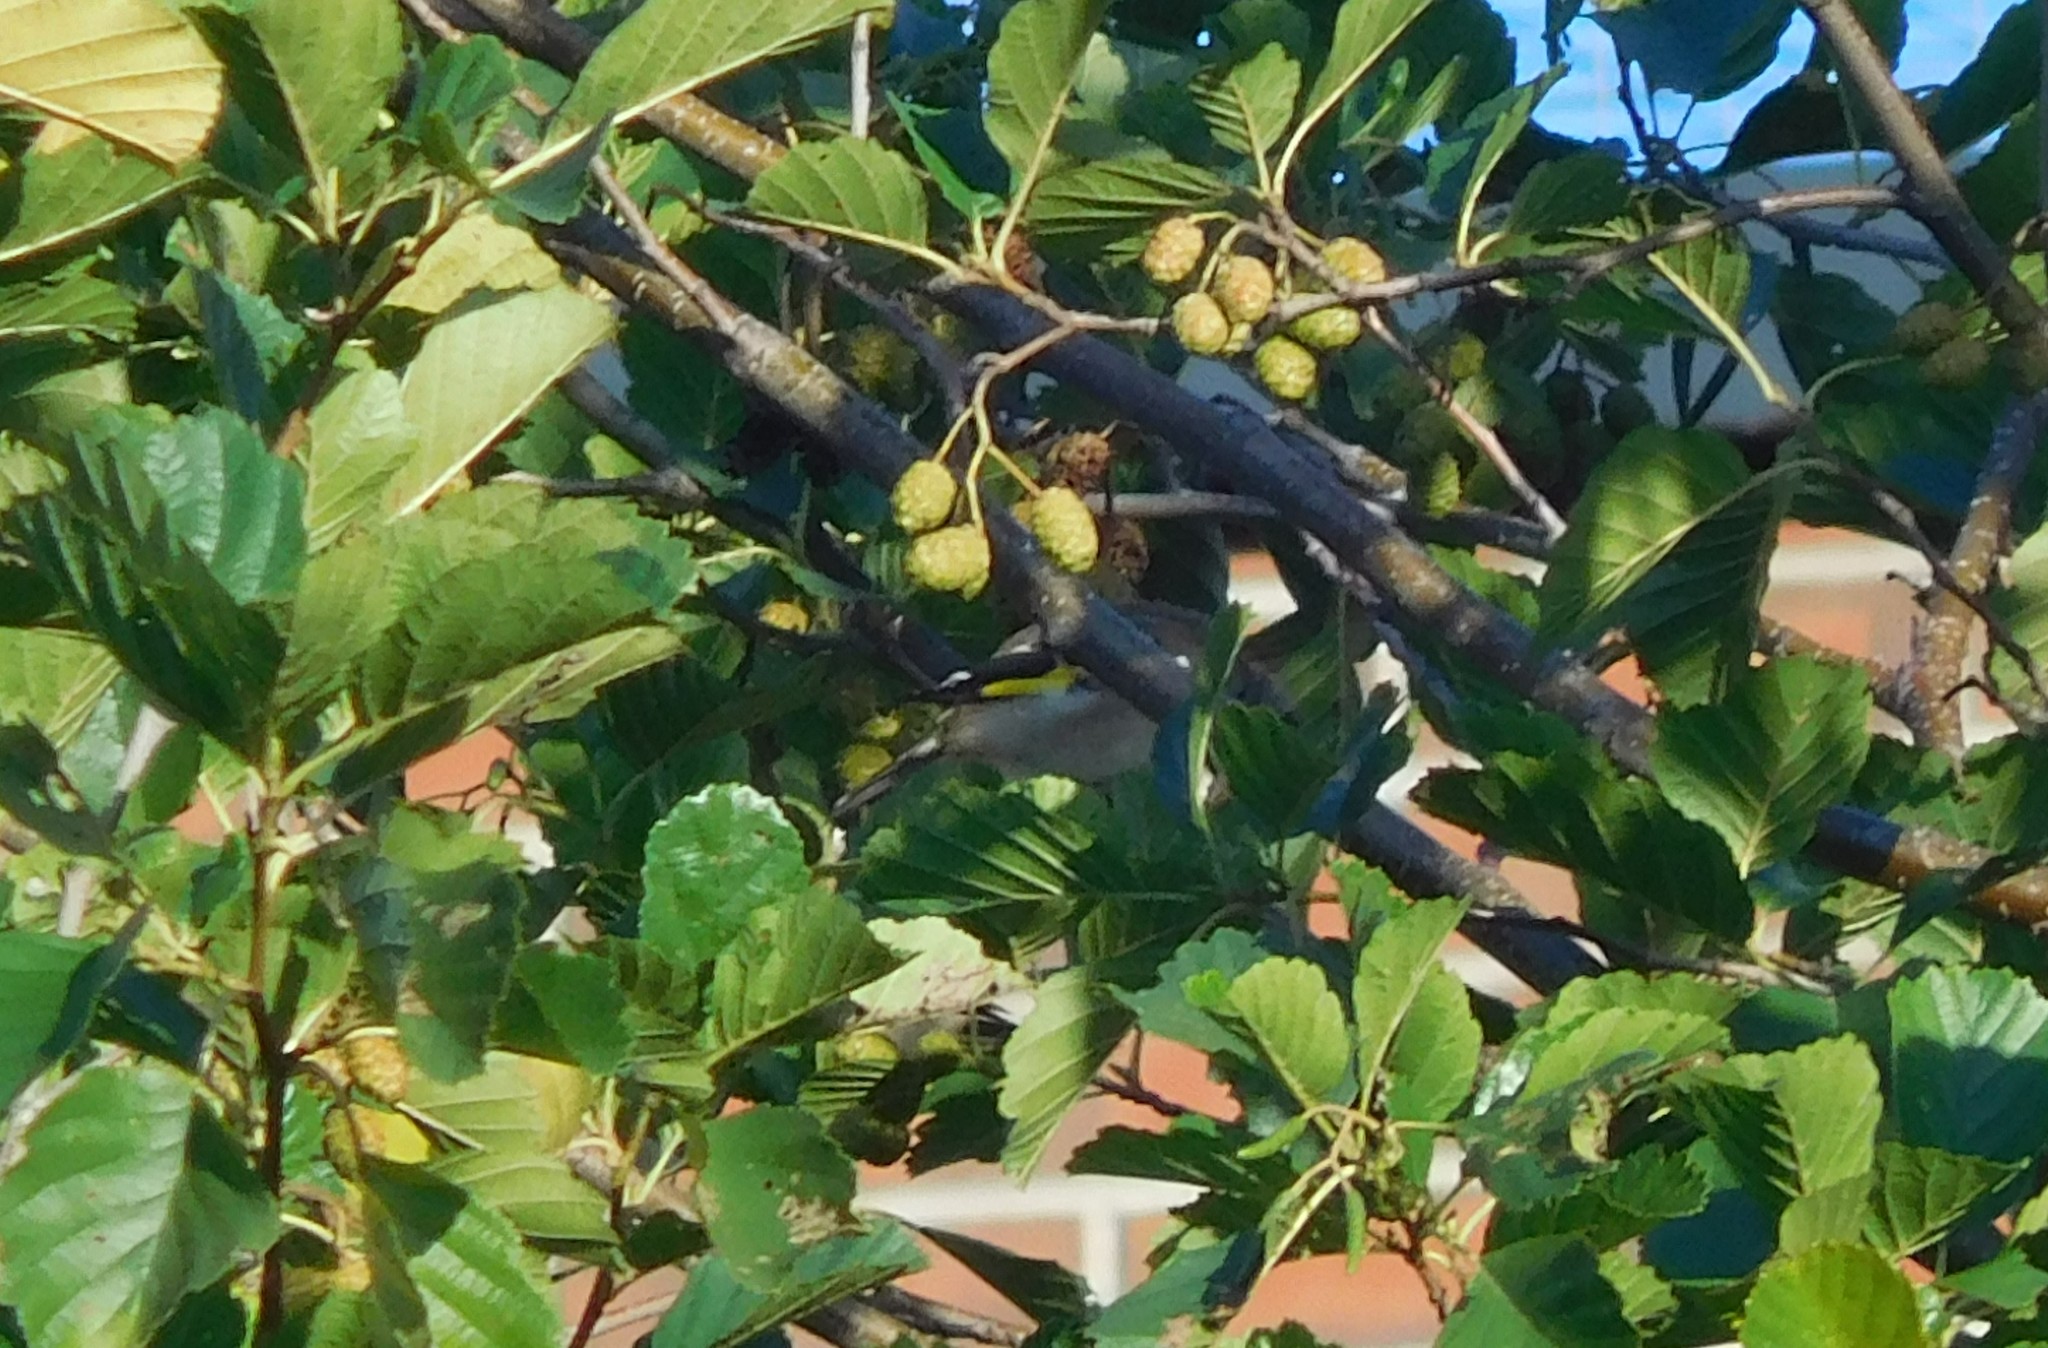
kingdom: Animalia
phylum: Chordata
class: Aves
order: Passeriformes
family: Fringillidae
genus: Carduelis
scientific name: Carduelis carduelis
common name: European goldfinch
